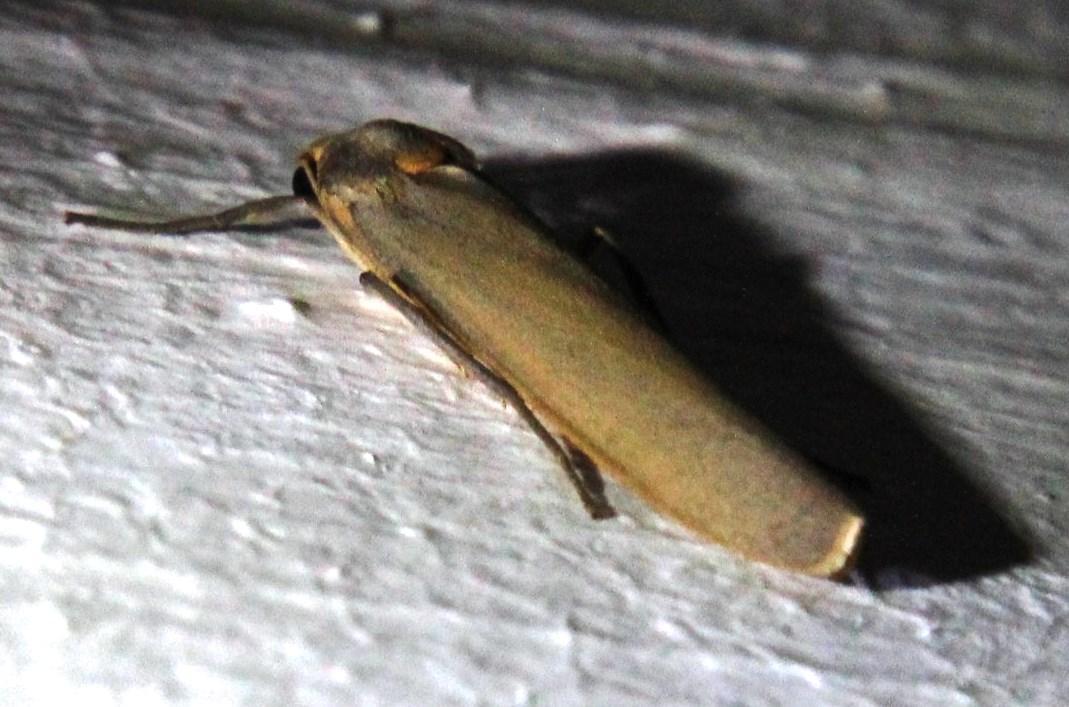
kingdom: Animalia
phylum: Arthropoda
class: Insecta
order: Lepidoptera
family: Erebidae
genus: Birketsmithiola
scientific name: Birketsmithiola sanguicosta
